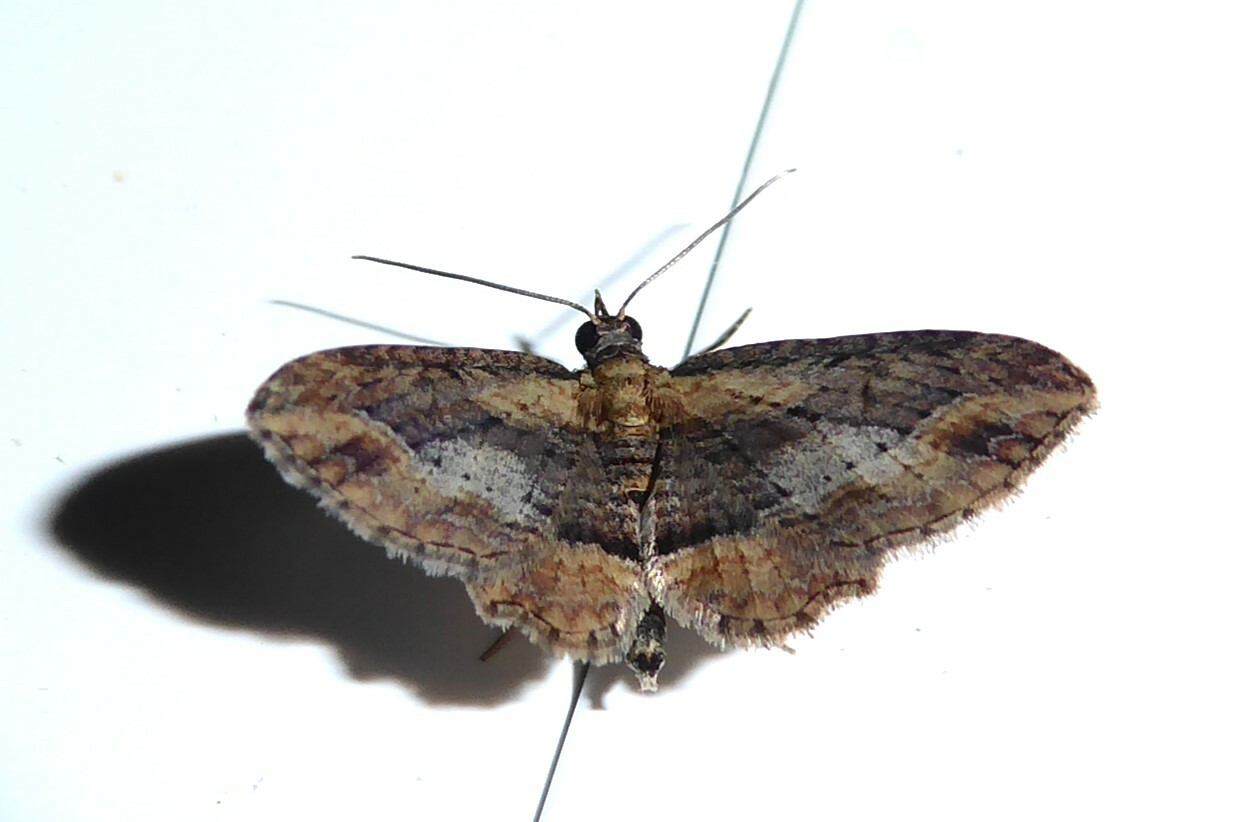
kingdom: Animalia
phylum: Arthropoda
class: Insecta
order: Lepidoptera
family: Geometridae
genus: Chloroclystis
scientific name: Chloroclystis filata
